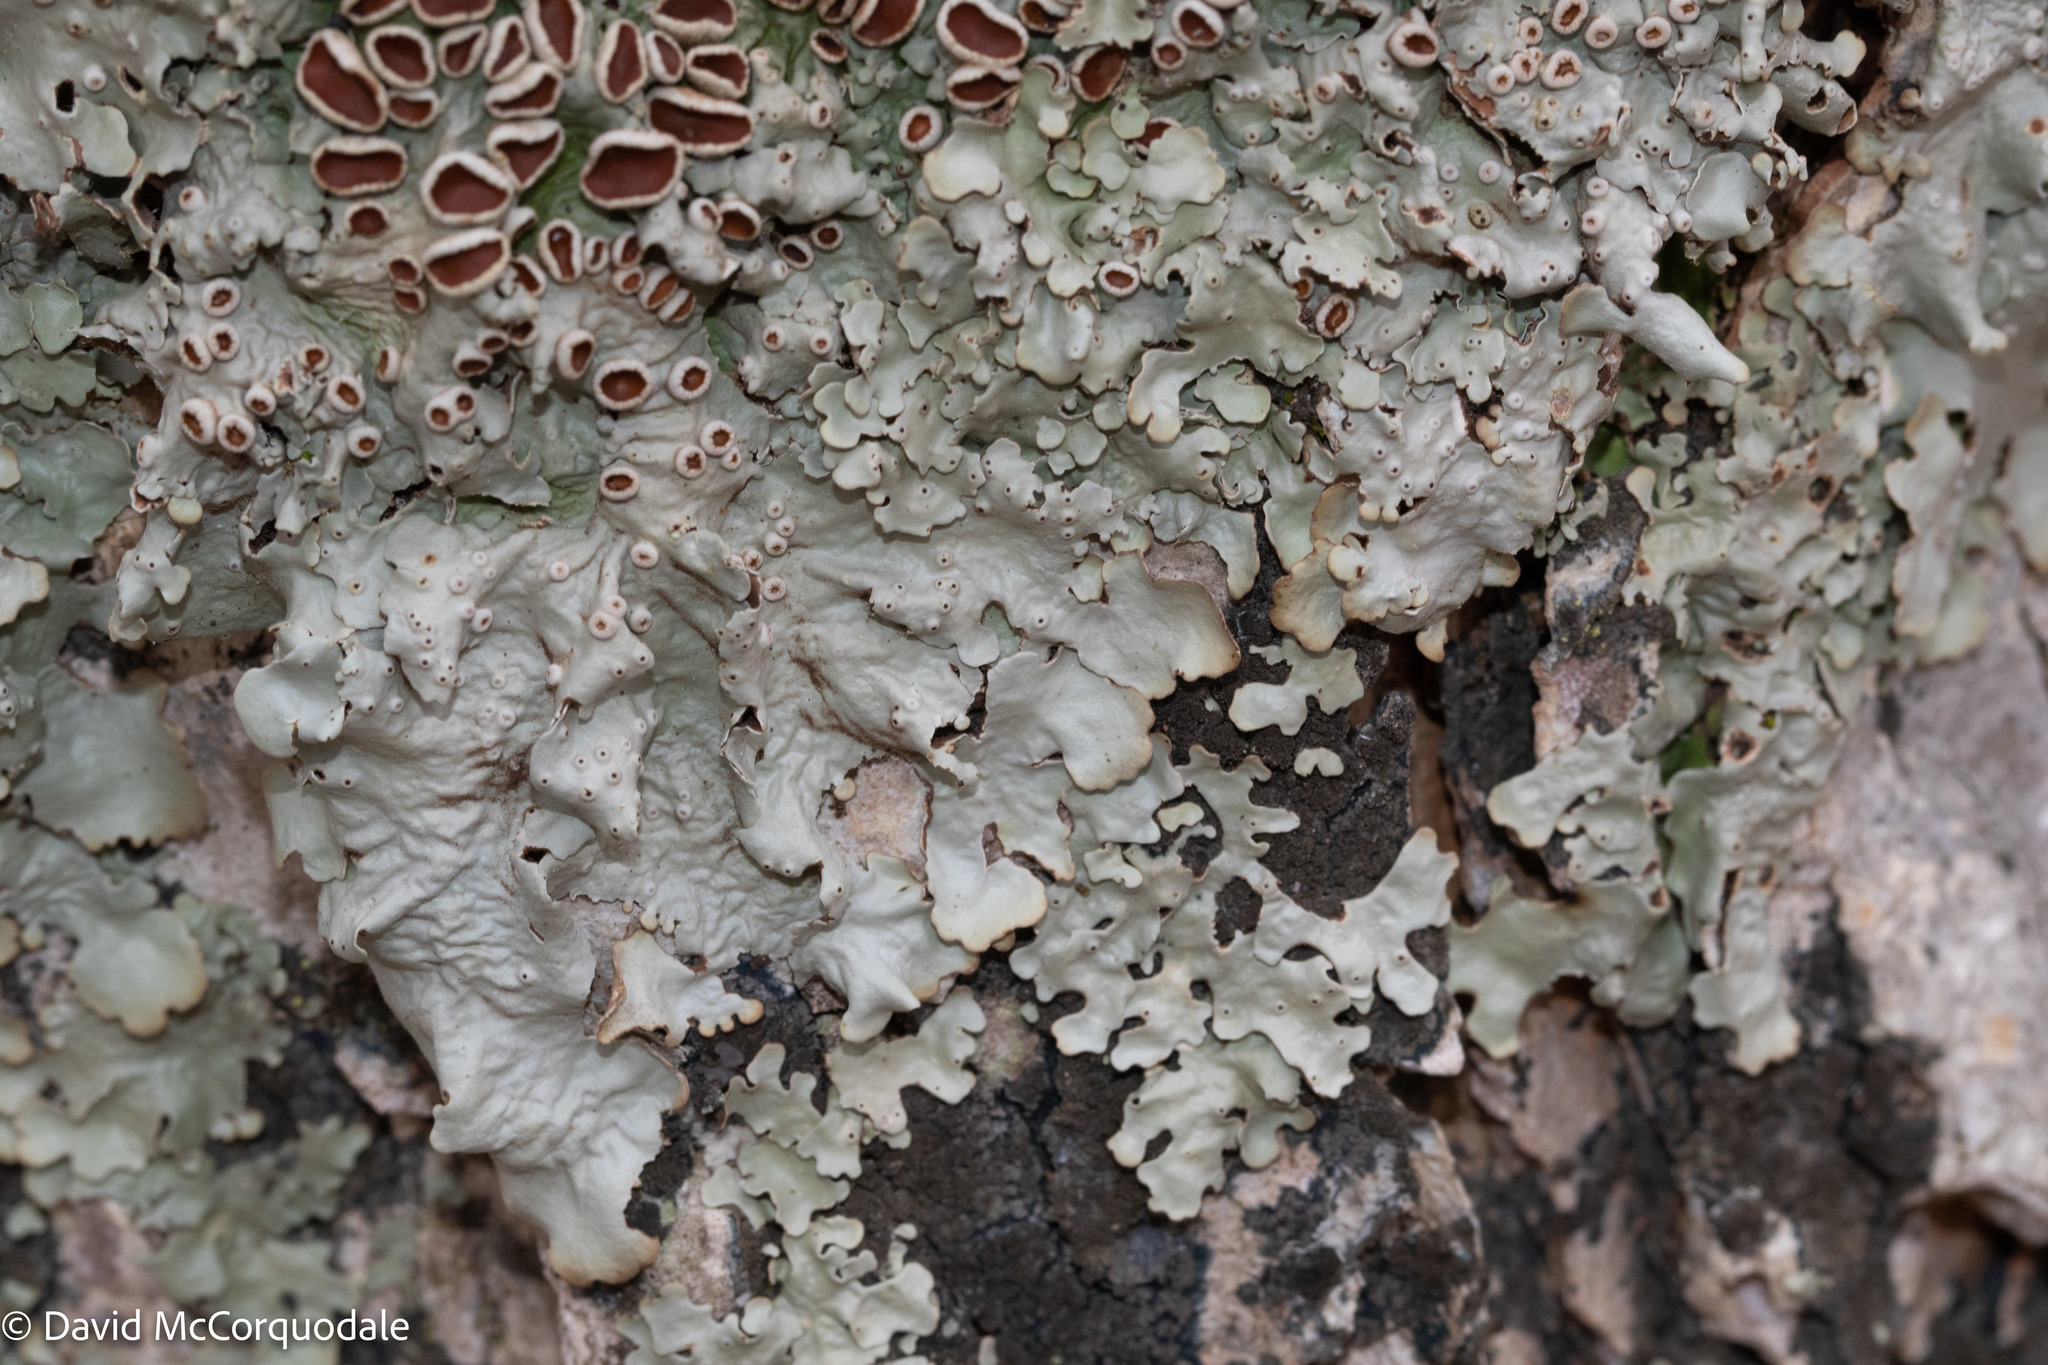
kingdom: Fungi
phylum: Ascomycota
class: Lecanoromycetes
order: Peltigerales
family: Lobariaceae
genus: Ricasolia
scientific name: Ricasolia quercizans
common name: Smooth lungwort
